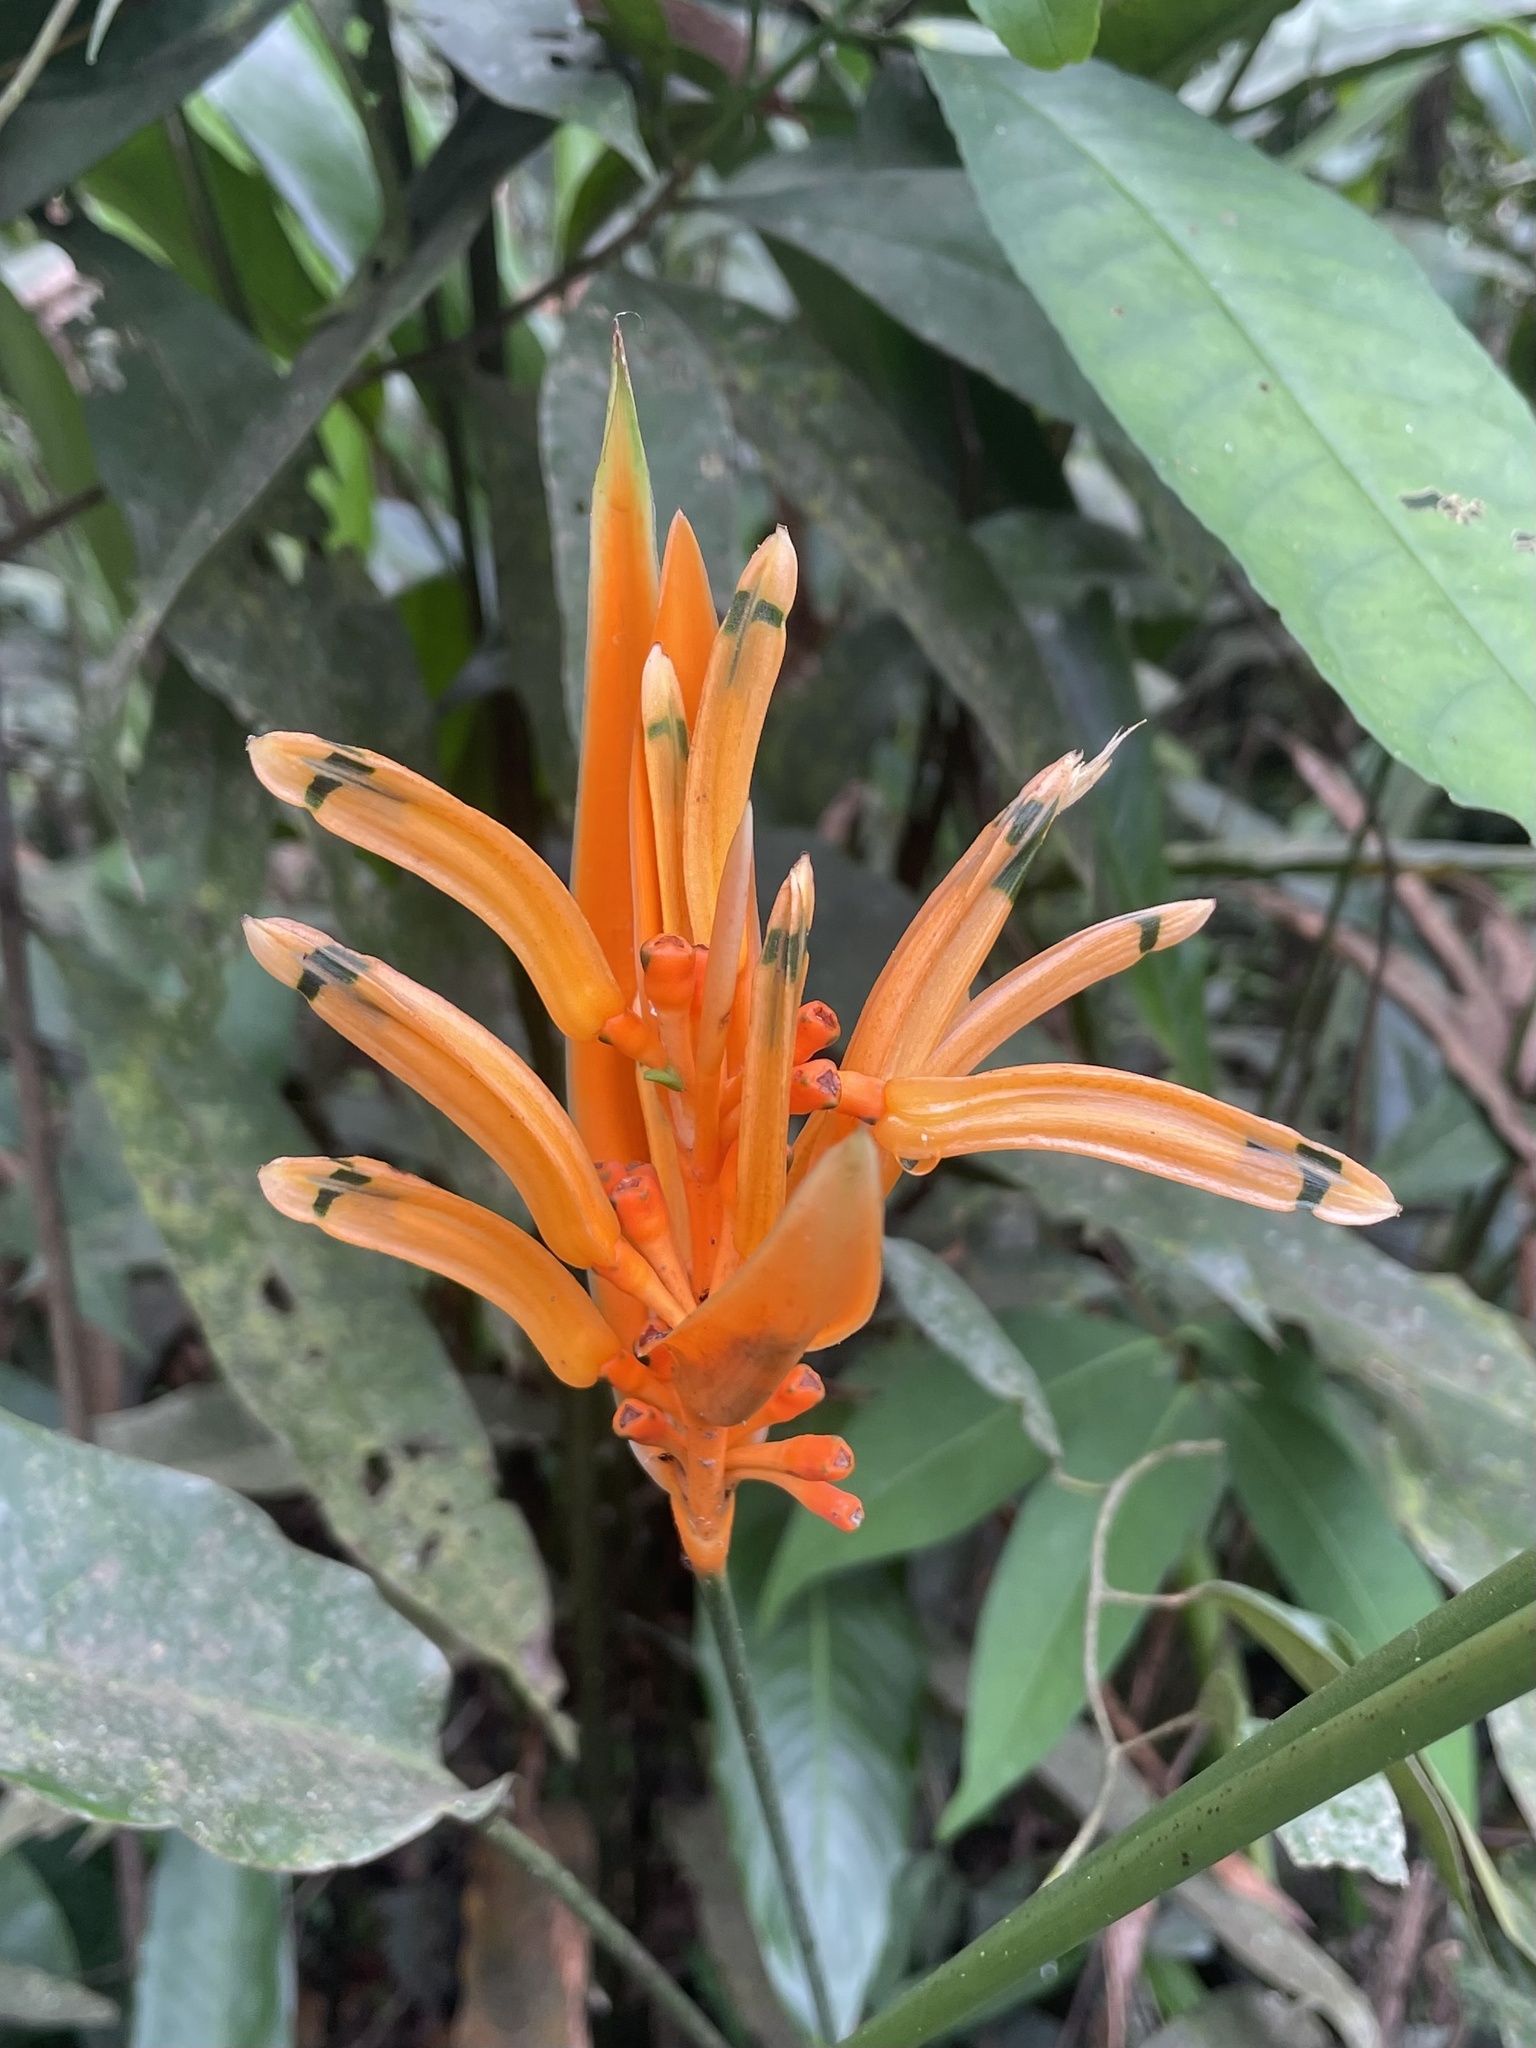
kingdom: Plantae
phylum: Tracheophyta
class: Liliopsida
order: Zingiberales
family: Heliconiaceae
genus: Heliconia
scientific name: Heliconia psittacorum
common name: Parrot's-flower
